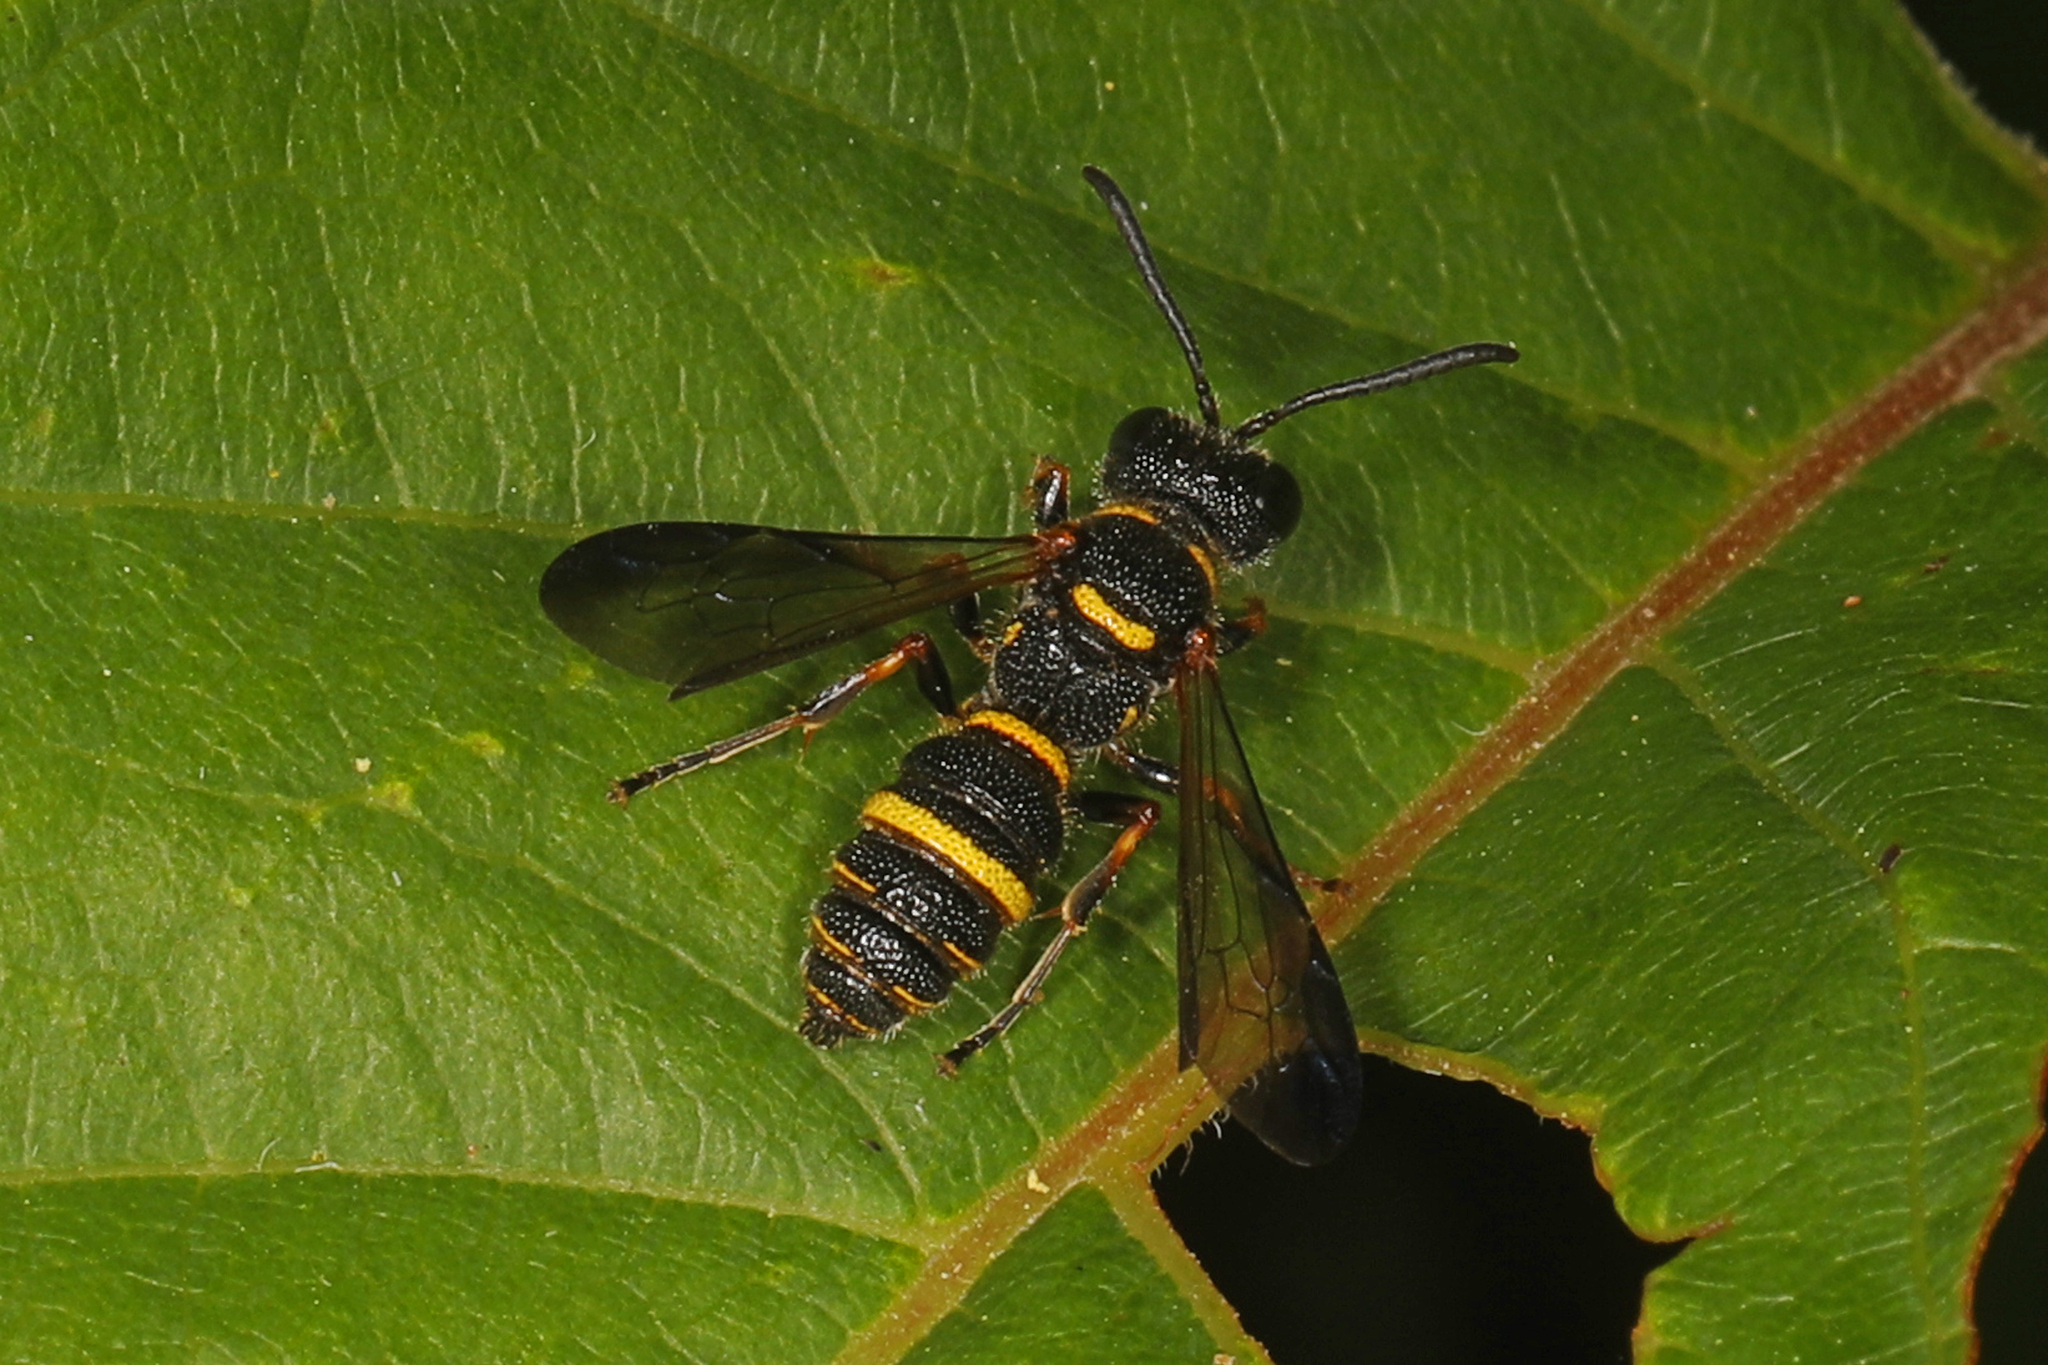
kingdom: Animalia
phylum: Arthropoda
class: Insecta
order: Hymenoptera
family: Crabronidae
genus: Cerceris
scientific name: Cerceris insolita
